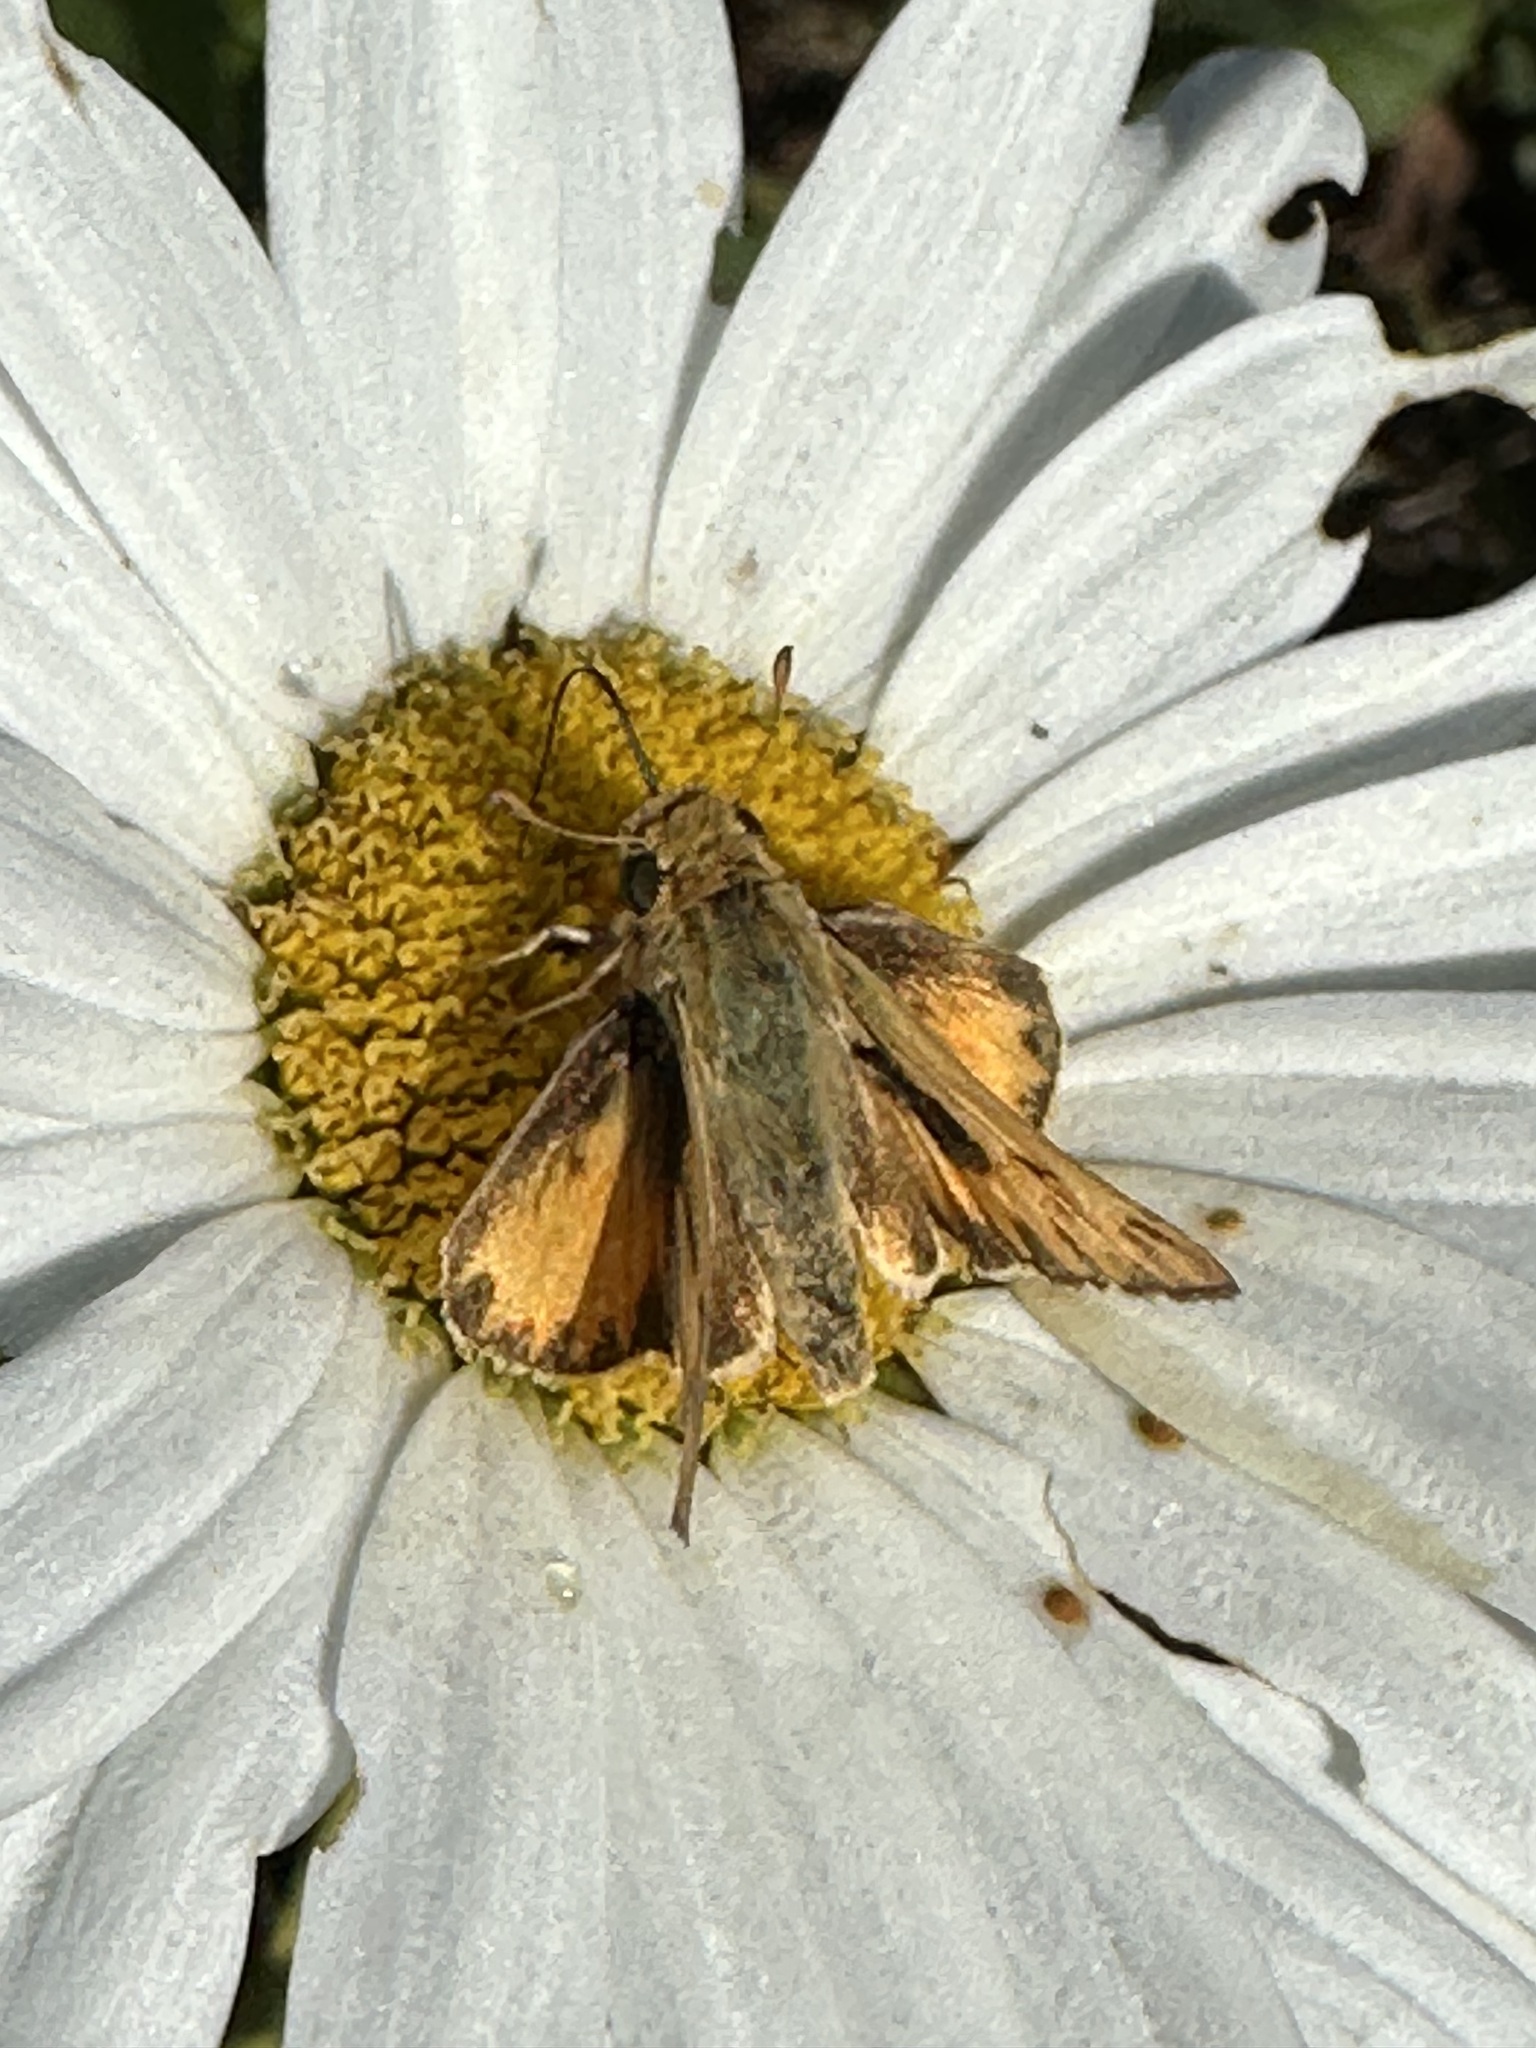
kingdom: Animalia
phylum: Arthropoda
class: Insecta
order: Lepidoptera
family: Hesperiidae
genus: Hylephila
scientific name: Hylephila phyleus
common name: Fiery skipper
